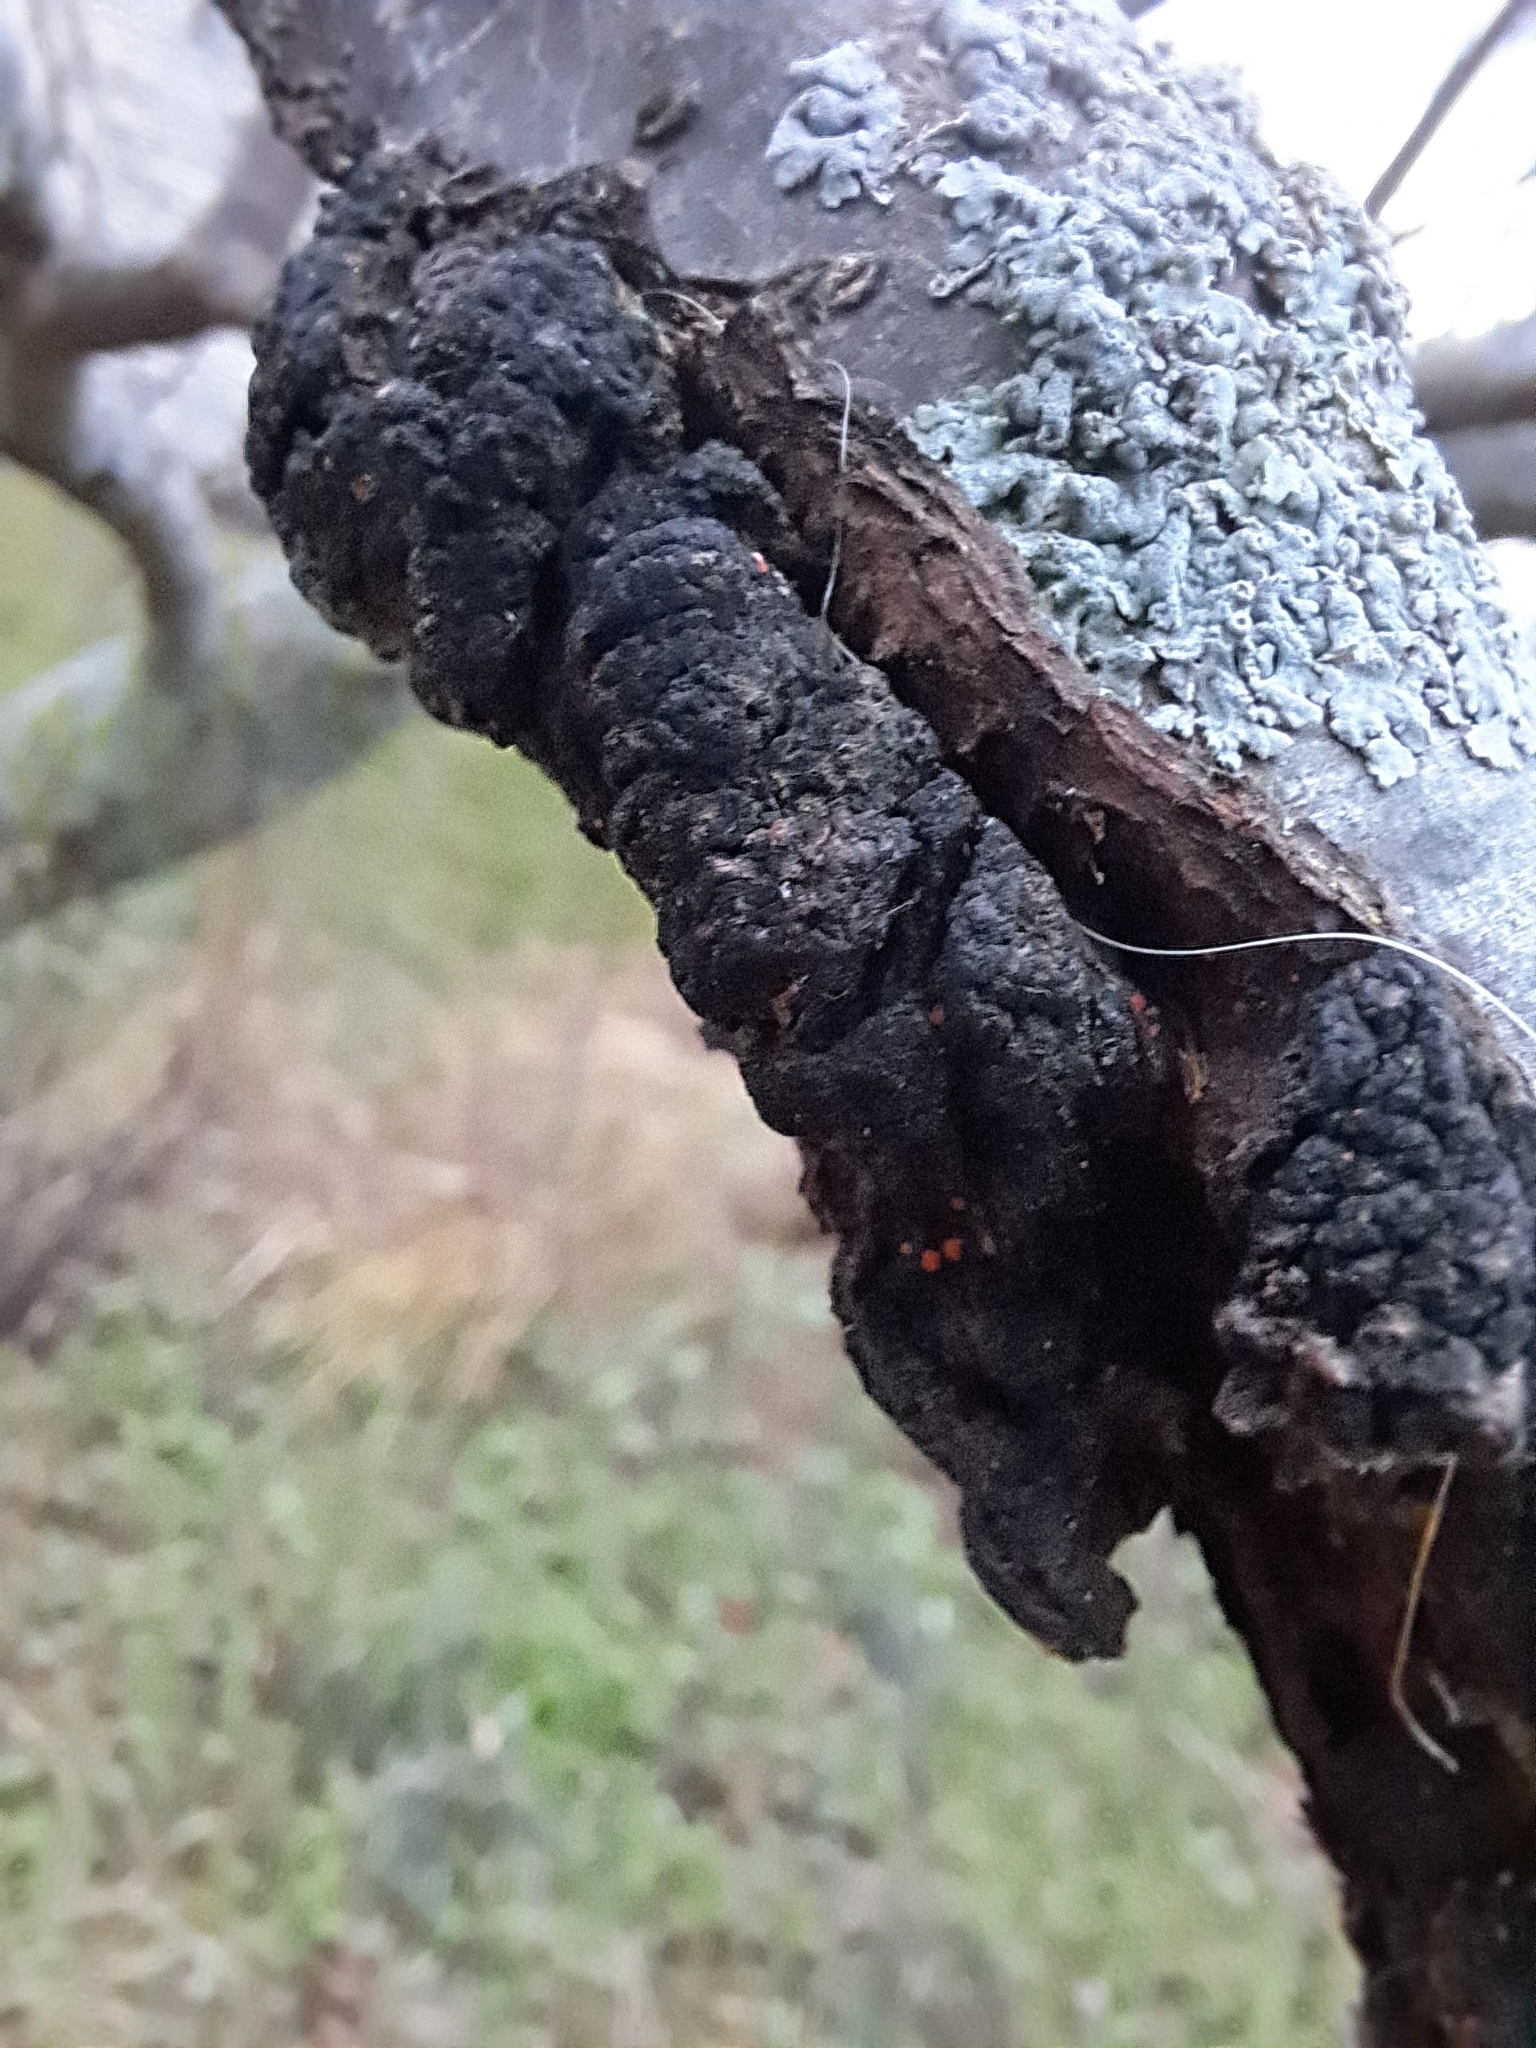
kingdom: Fungi
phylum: Ascomycota
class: Dothideomycetes
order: Venturiales
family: Venturiaceae
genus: Apiosporina
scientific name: Apiosporina morbosa
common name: Black knot
